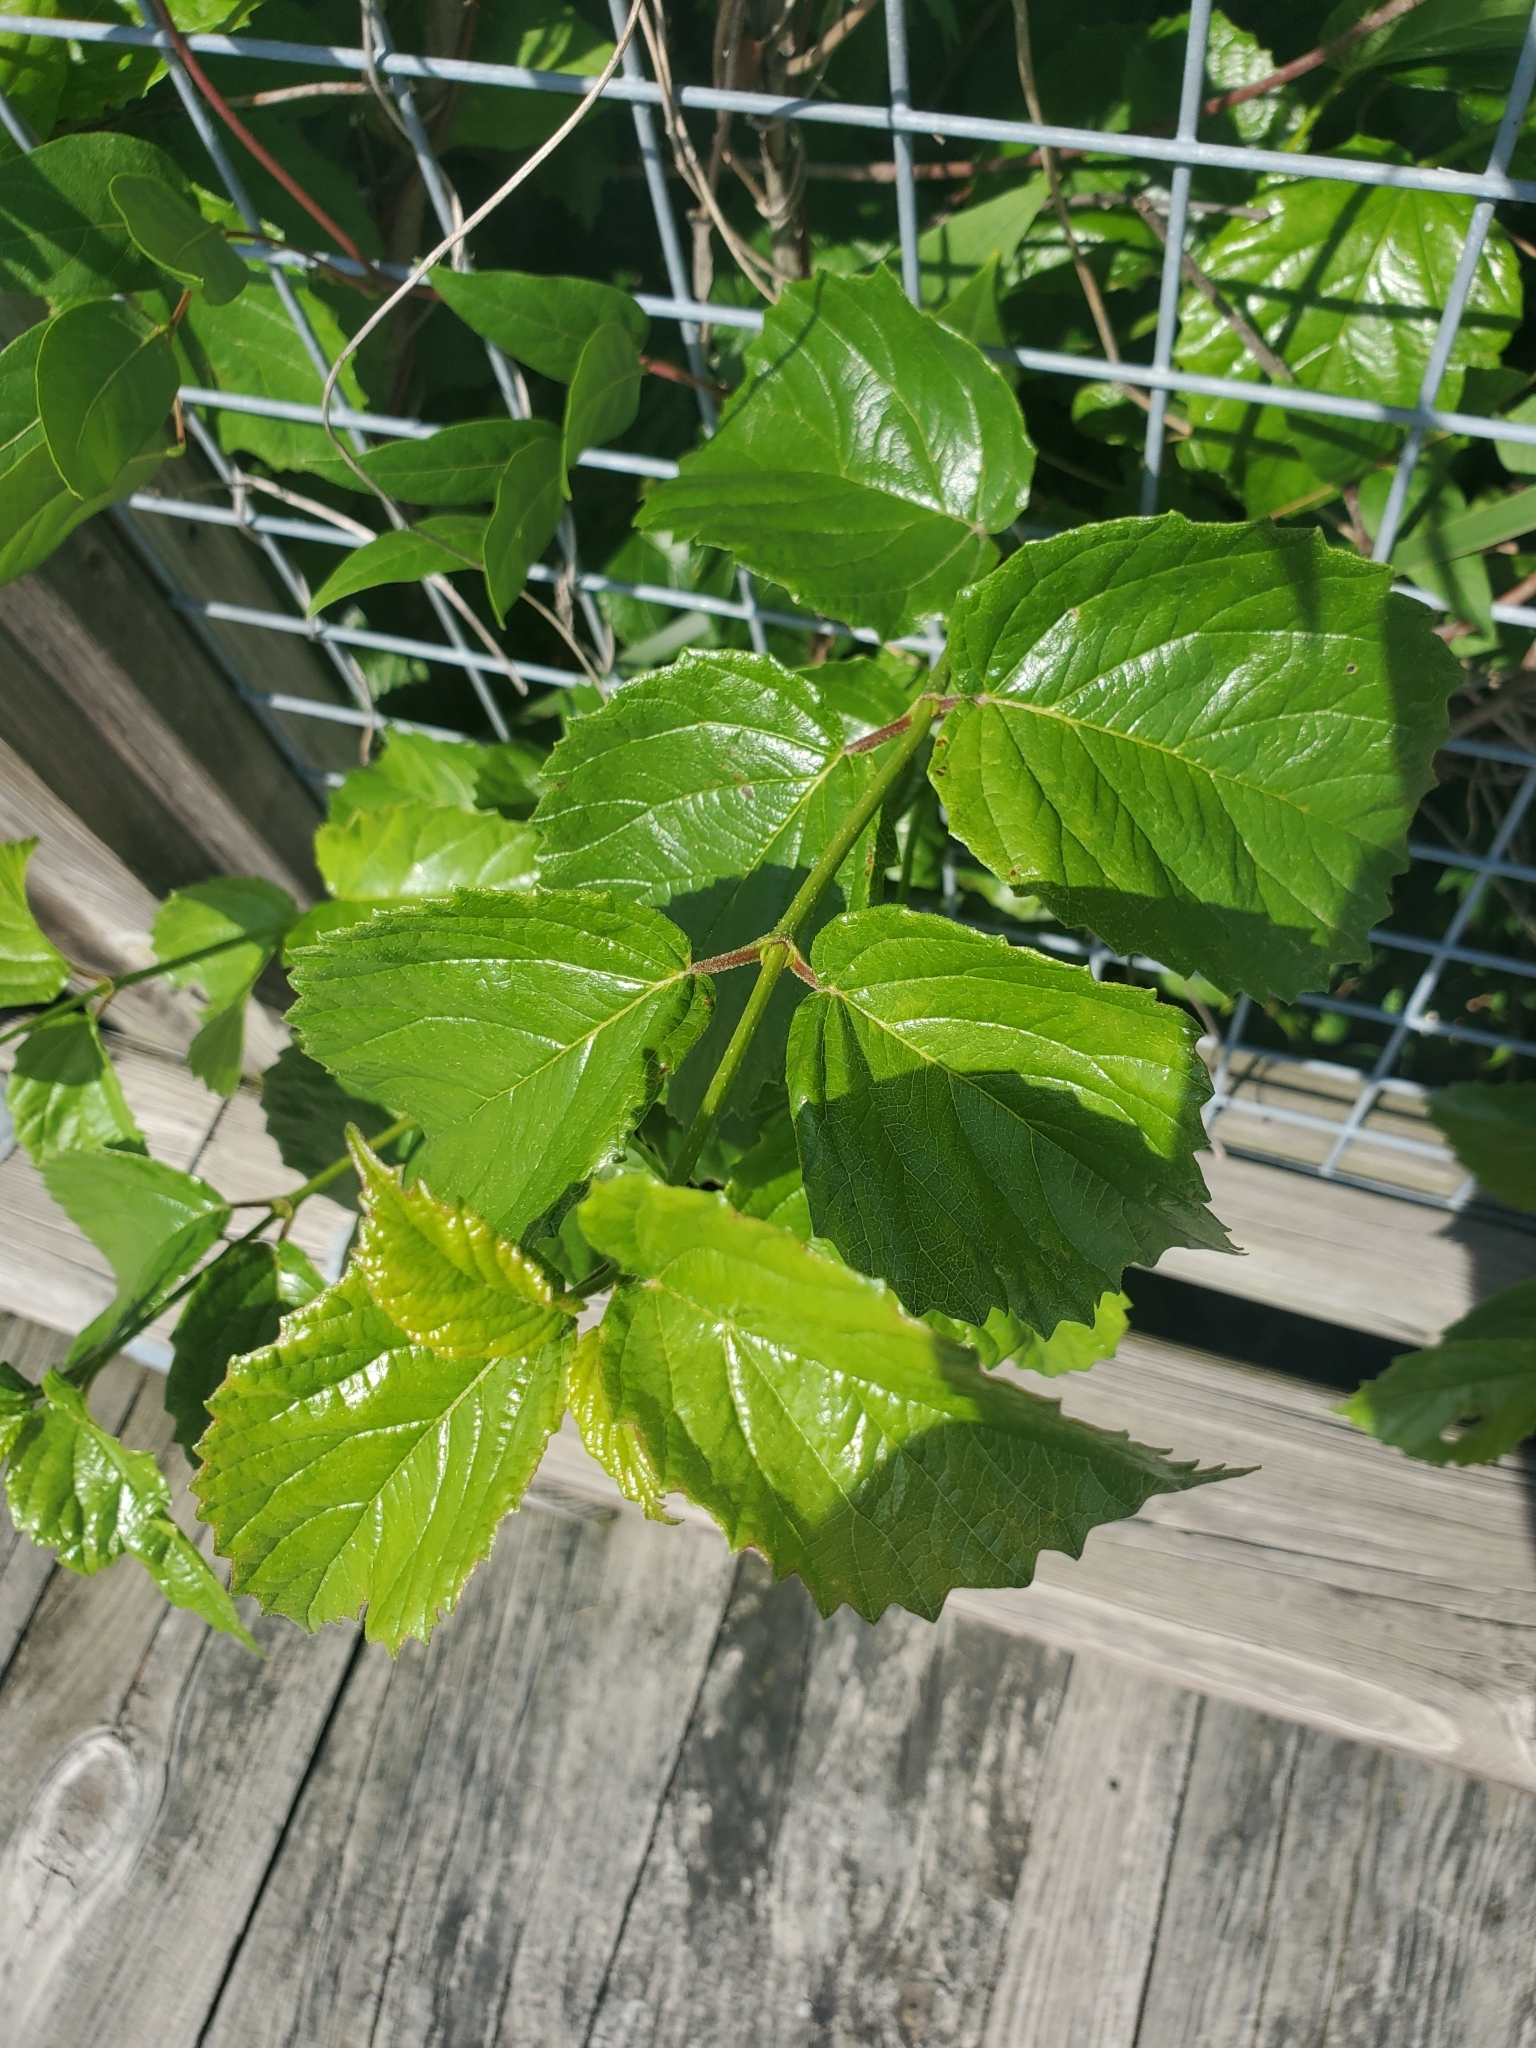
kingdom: Plantae
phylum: Tracheophyta
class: Magnoliopsida
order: Dipsacales
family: Viburnaceae
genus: Viburnum
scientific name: Viburnum dentatum
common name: Arrow-wood
